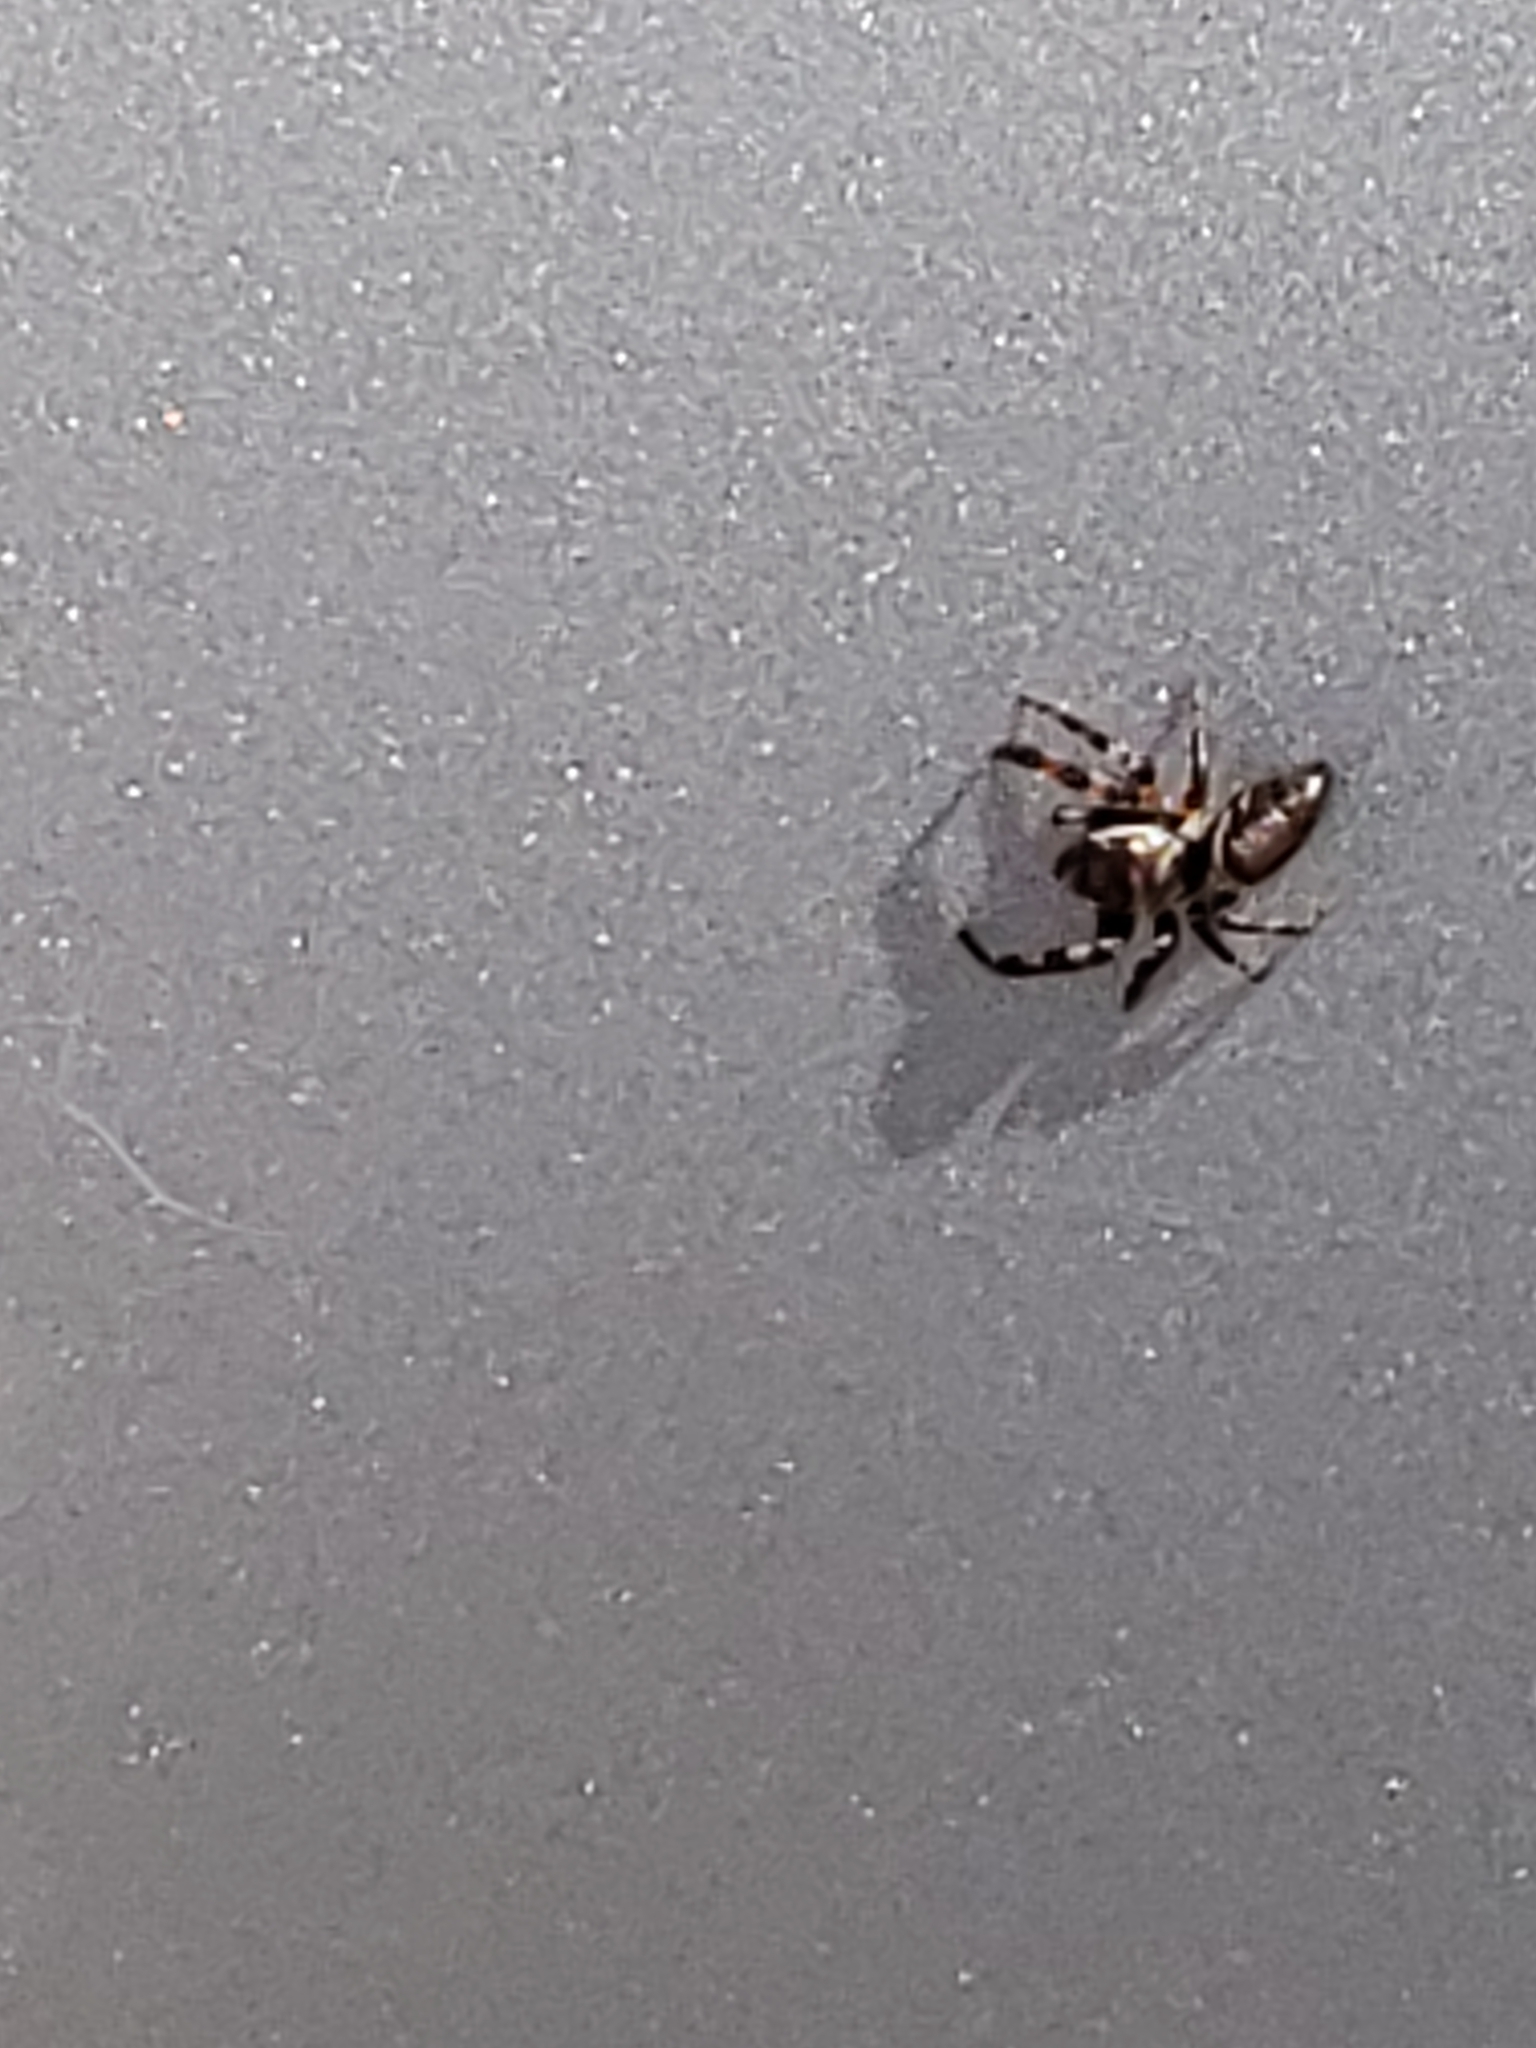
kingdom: Animalia
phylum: Arthropoda
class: Arachnida
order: Araneae
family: Salticidae
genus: Eris
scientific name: Eris militaris
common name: Bronze jumper
